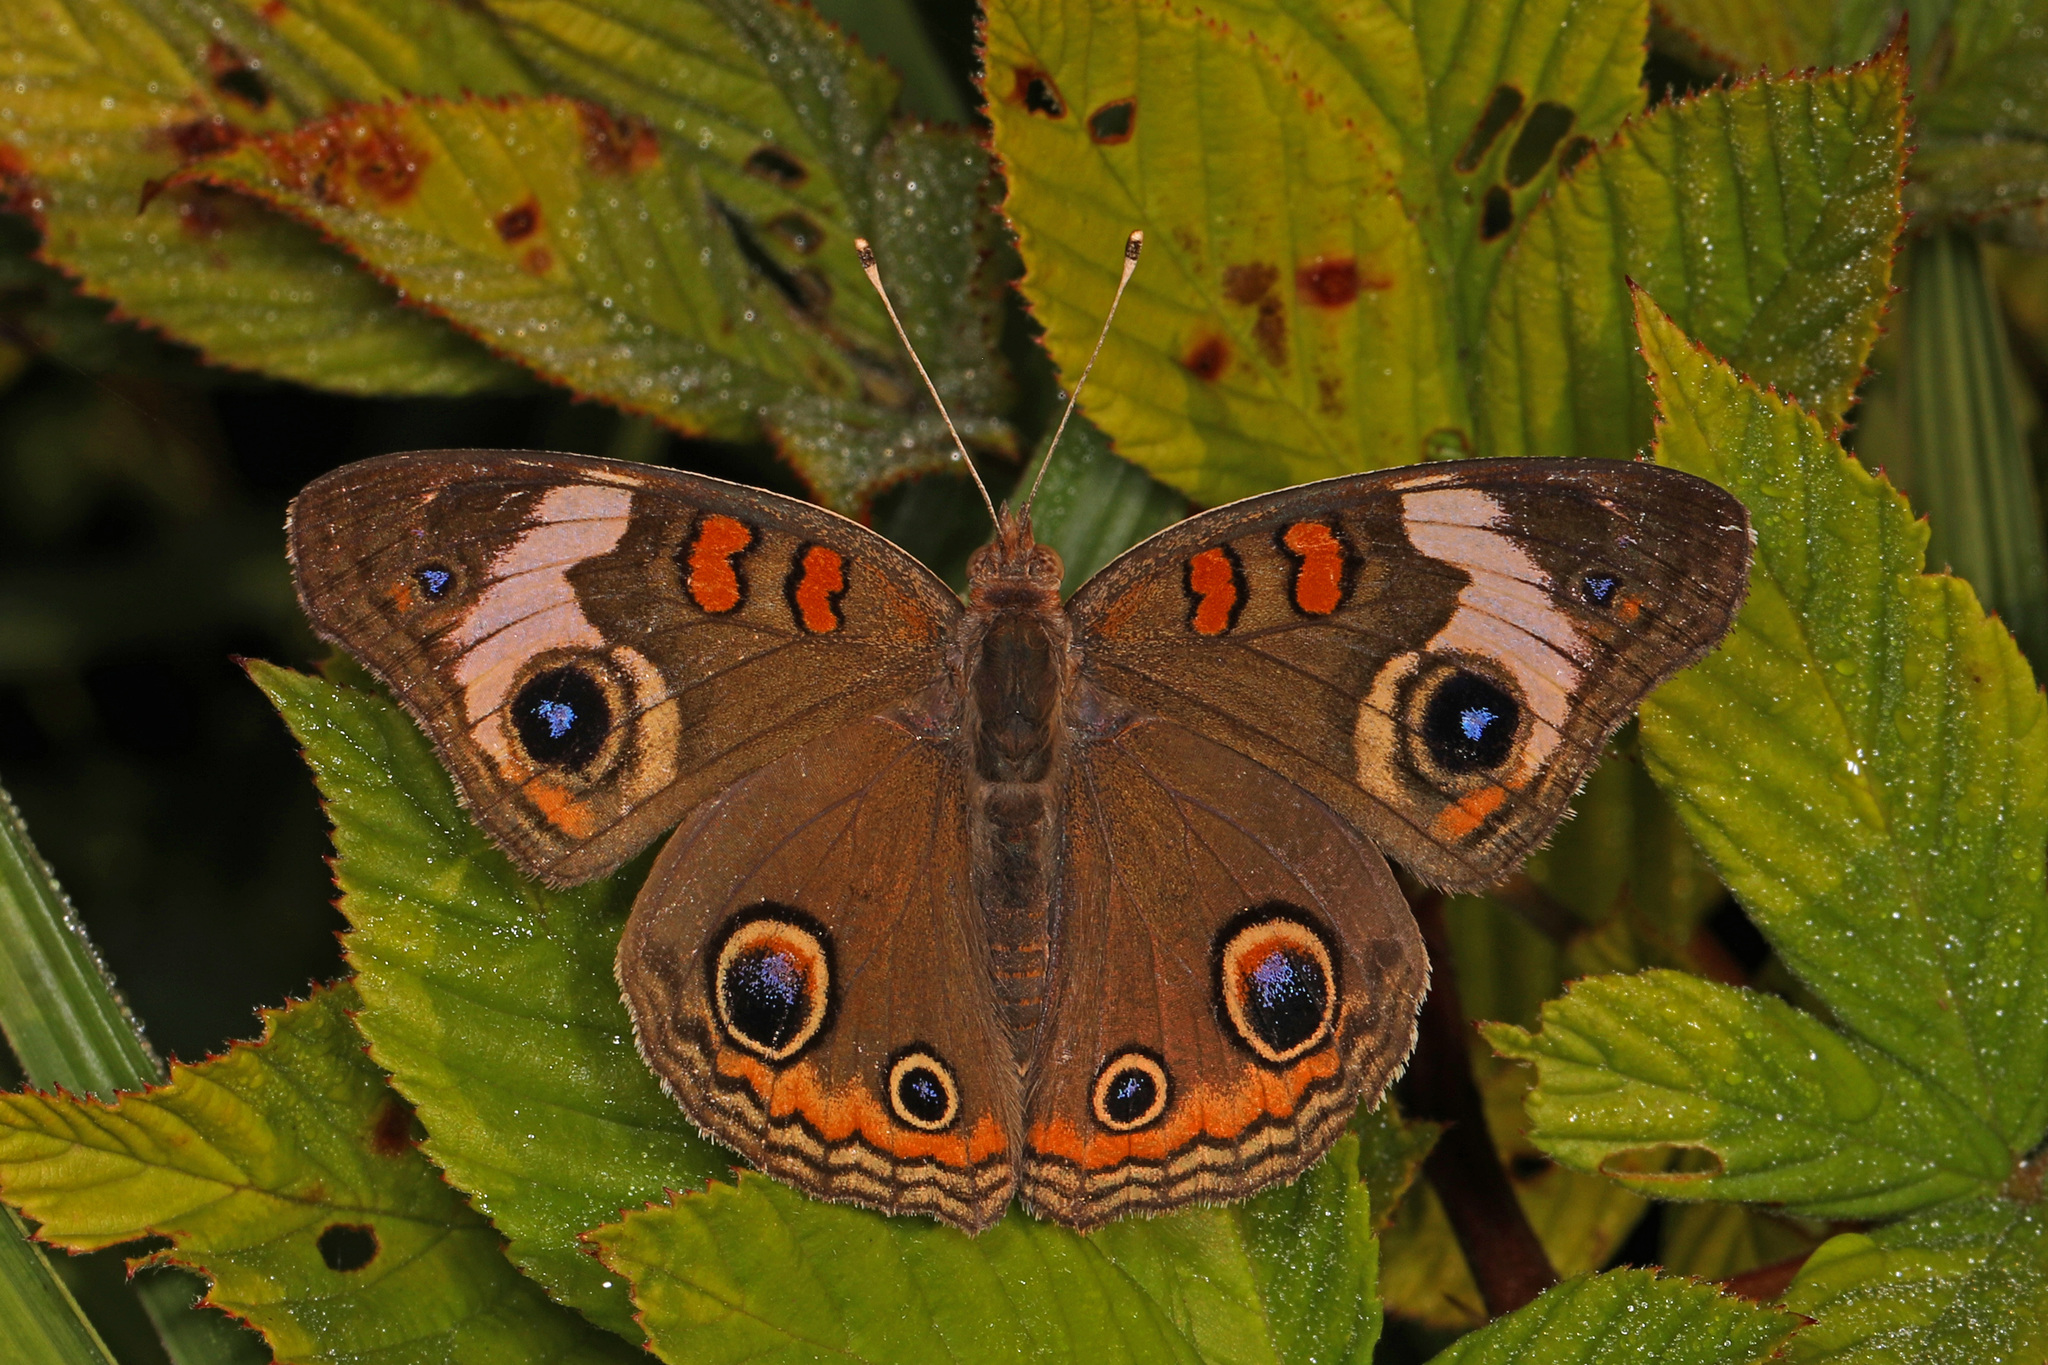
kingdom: Animalia
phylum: Arthropoda
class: Insecta
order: Lepidoptera
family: Nymphalidae
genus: Junonia
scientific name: Junonia coenia
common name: Common buckeye
